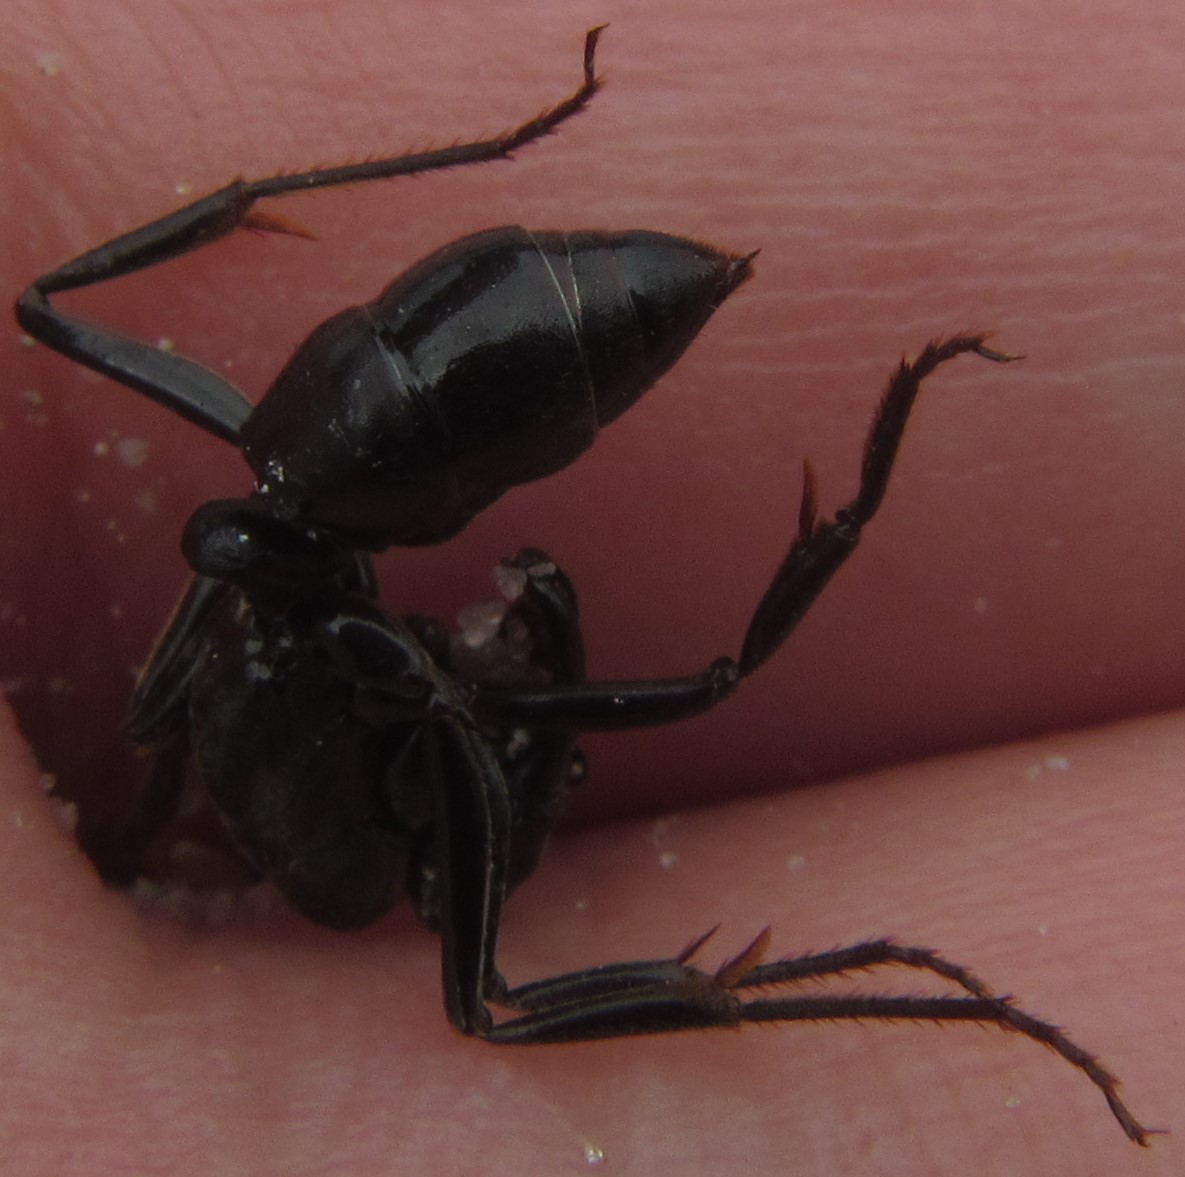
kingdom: Animalia
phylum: Arthropoda
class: Insecta
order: Hymenoptera
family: Formicidae
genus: Paltothyreus
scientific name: Paltothyreus tarsatus
